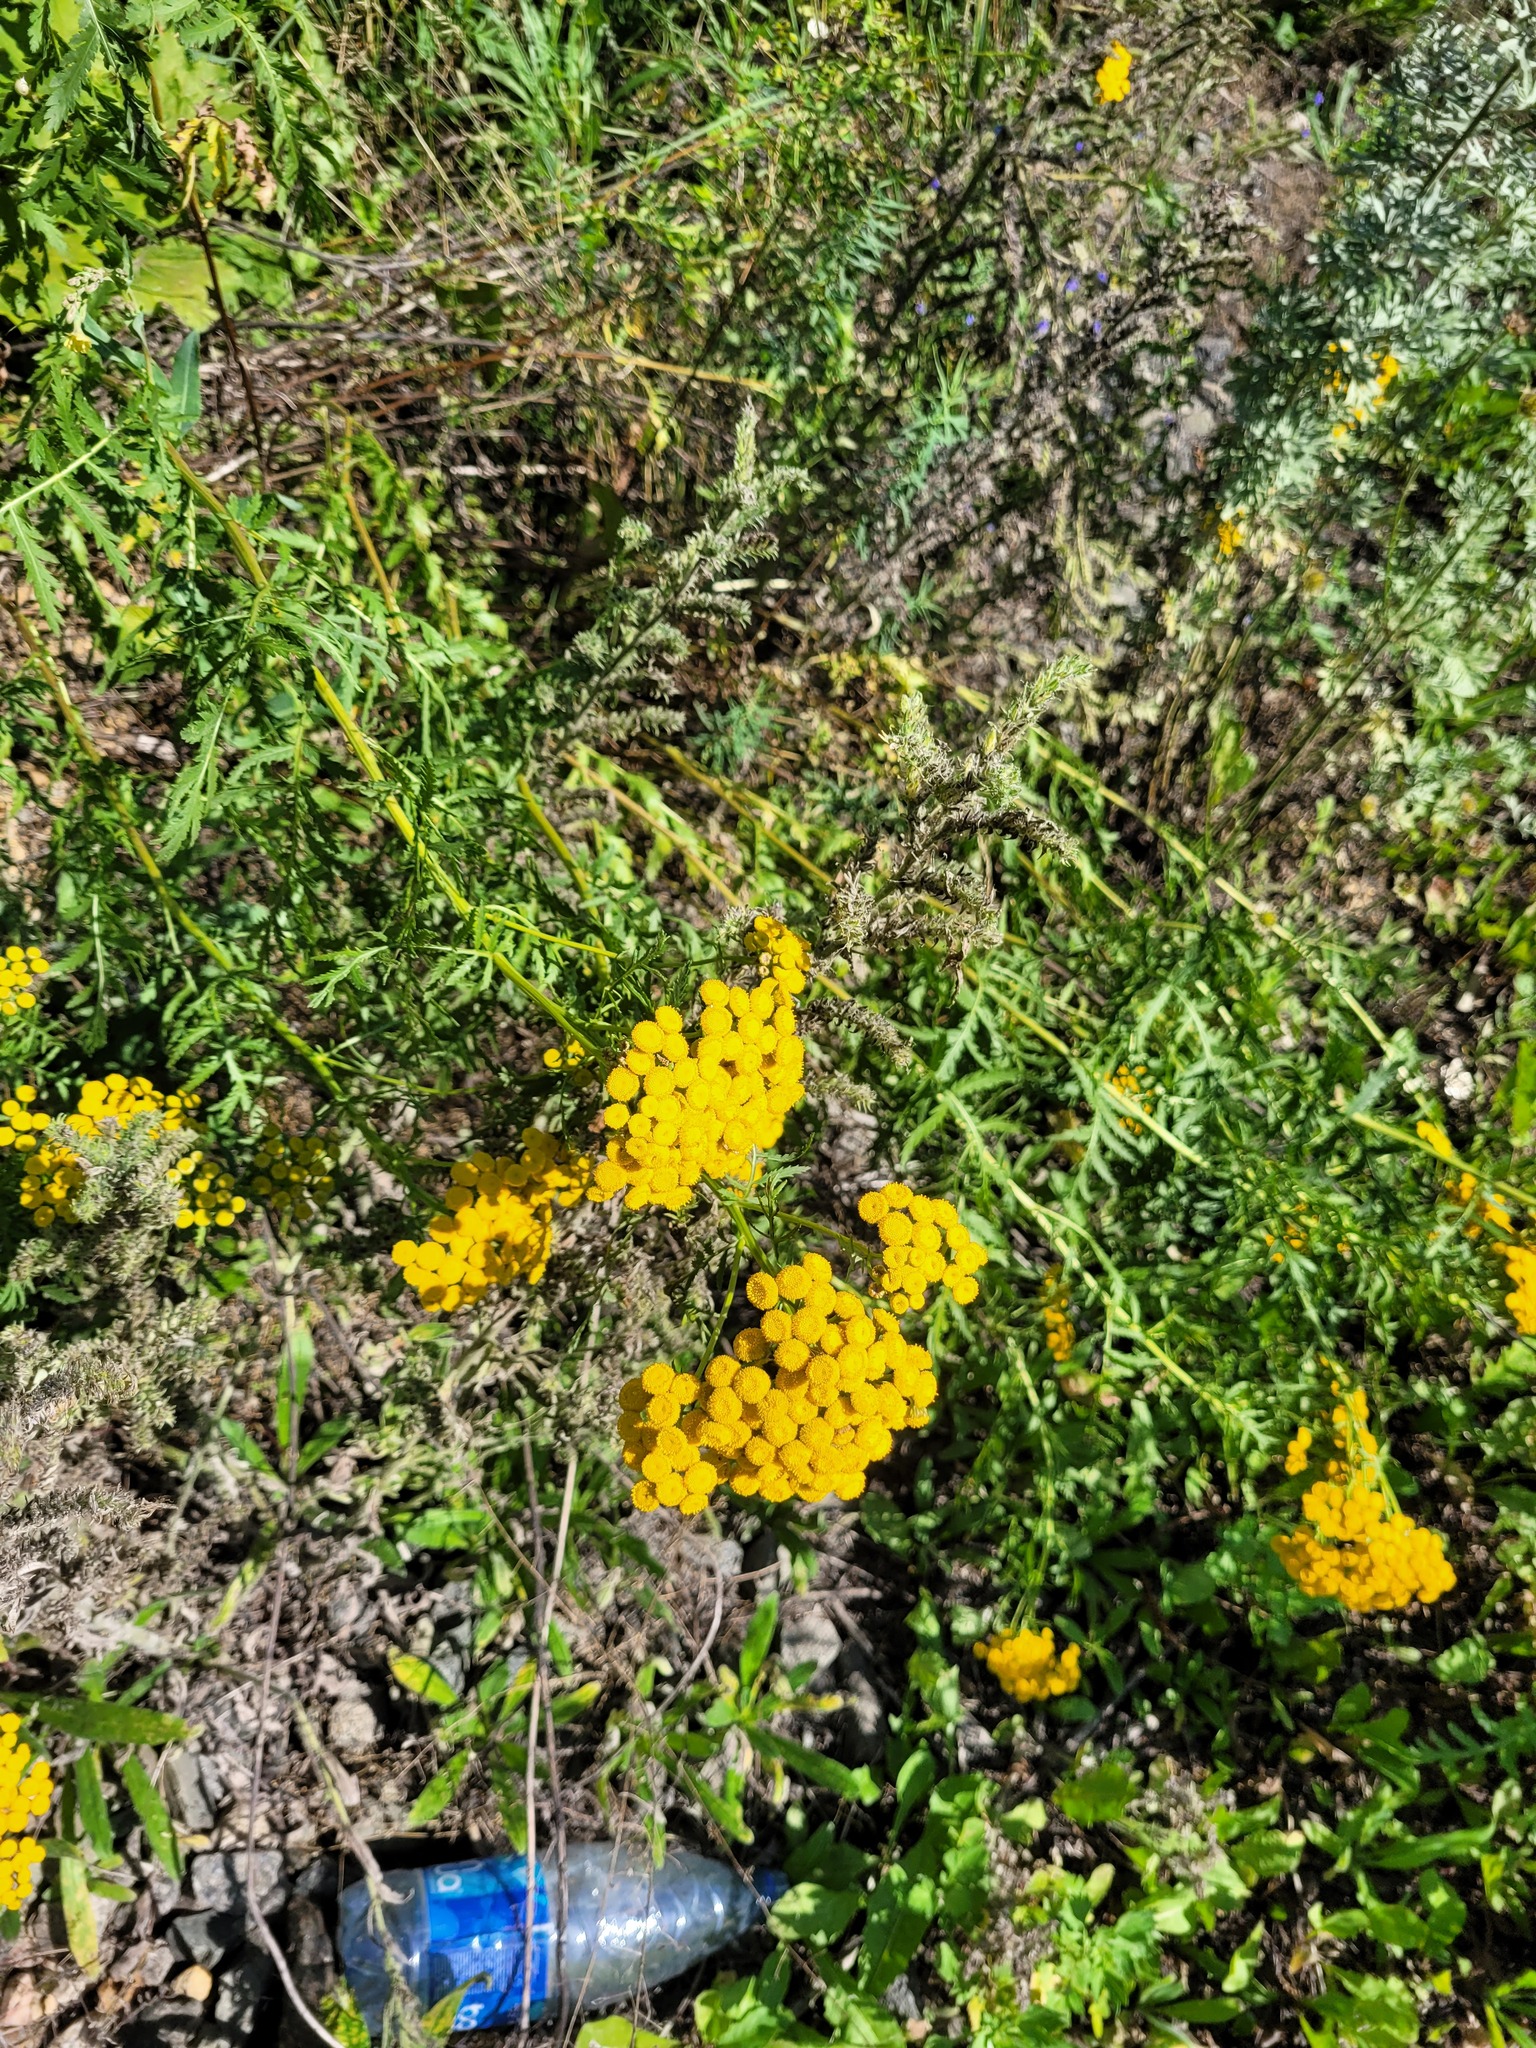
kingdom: Plantae
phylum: Tracheophyta
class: Magnoliopsida
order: Asterales
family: Asteraceae
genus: Tanacetum
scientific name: Tanacetum vulgare
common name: Common tansy
